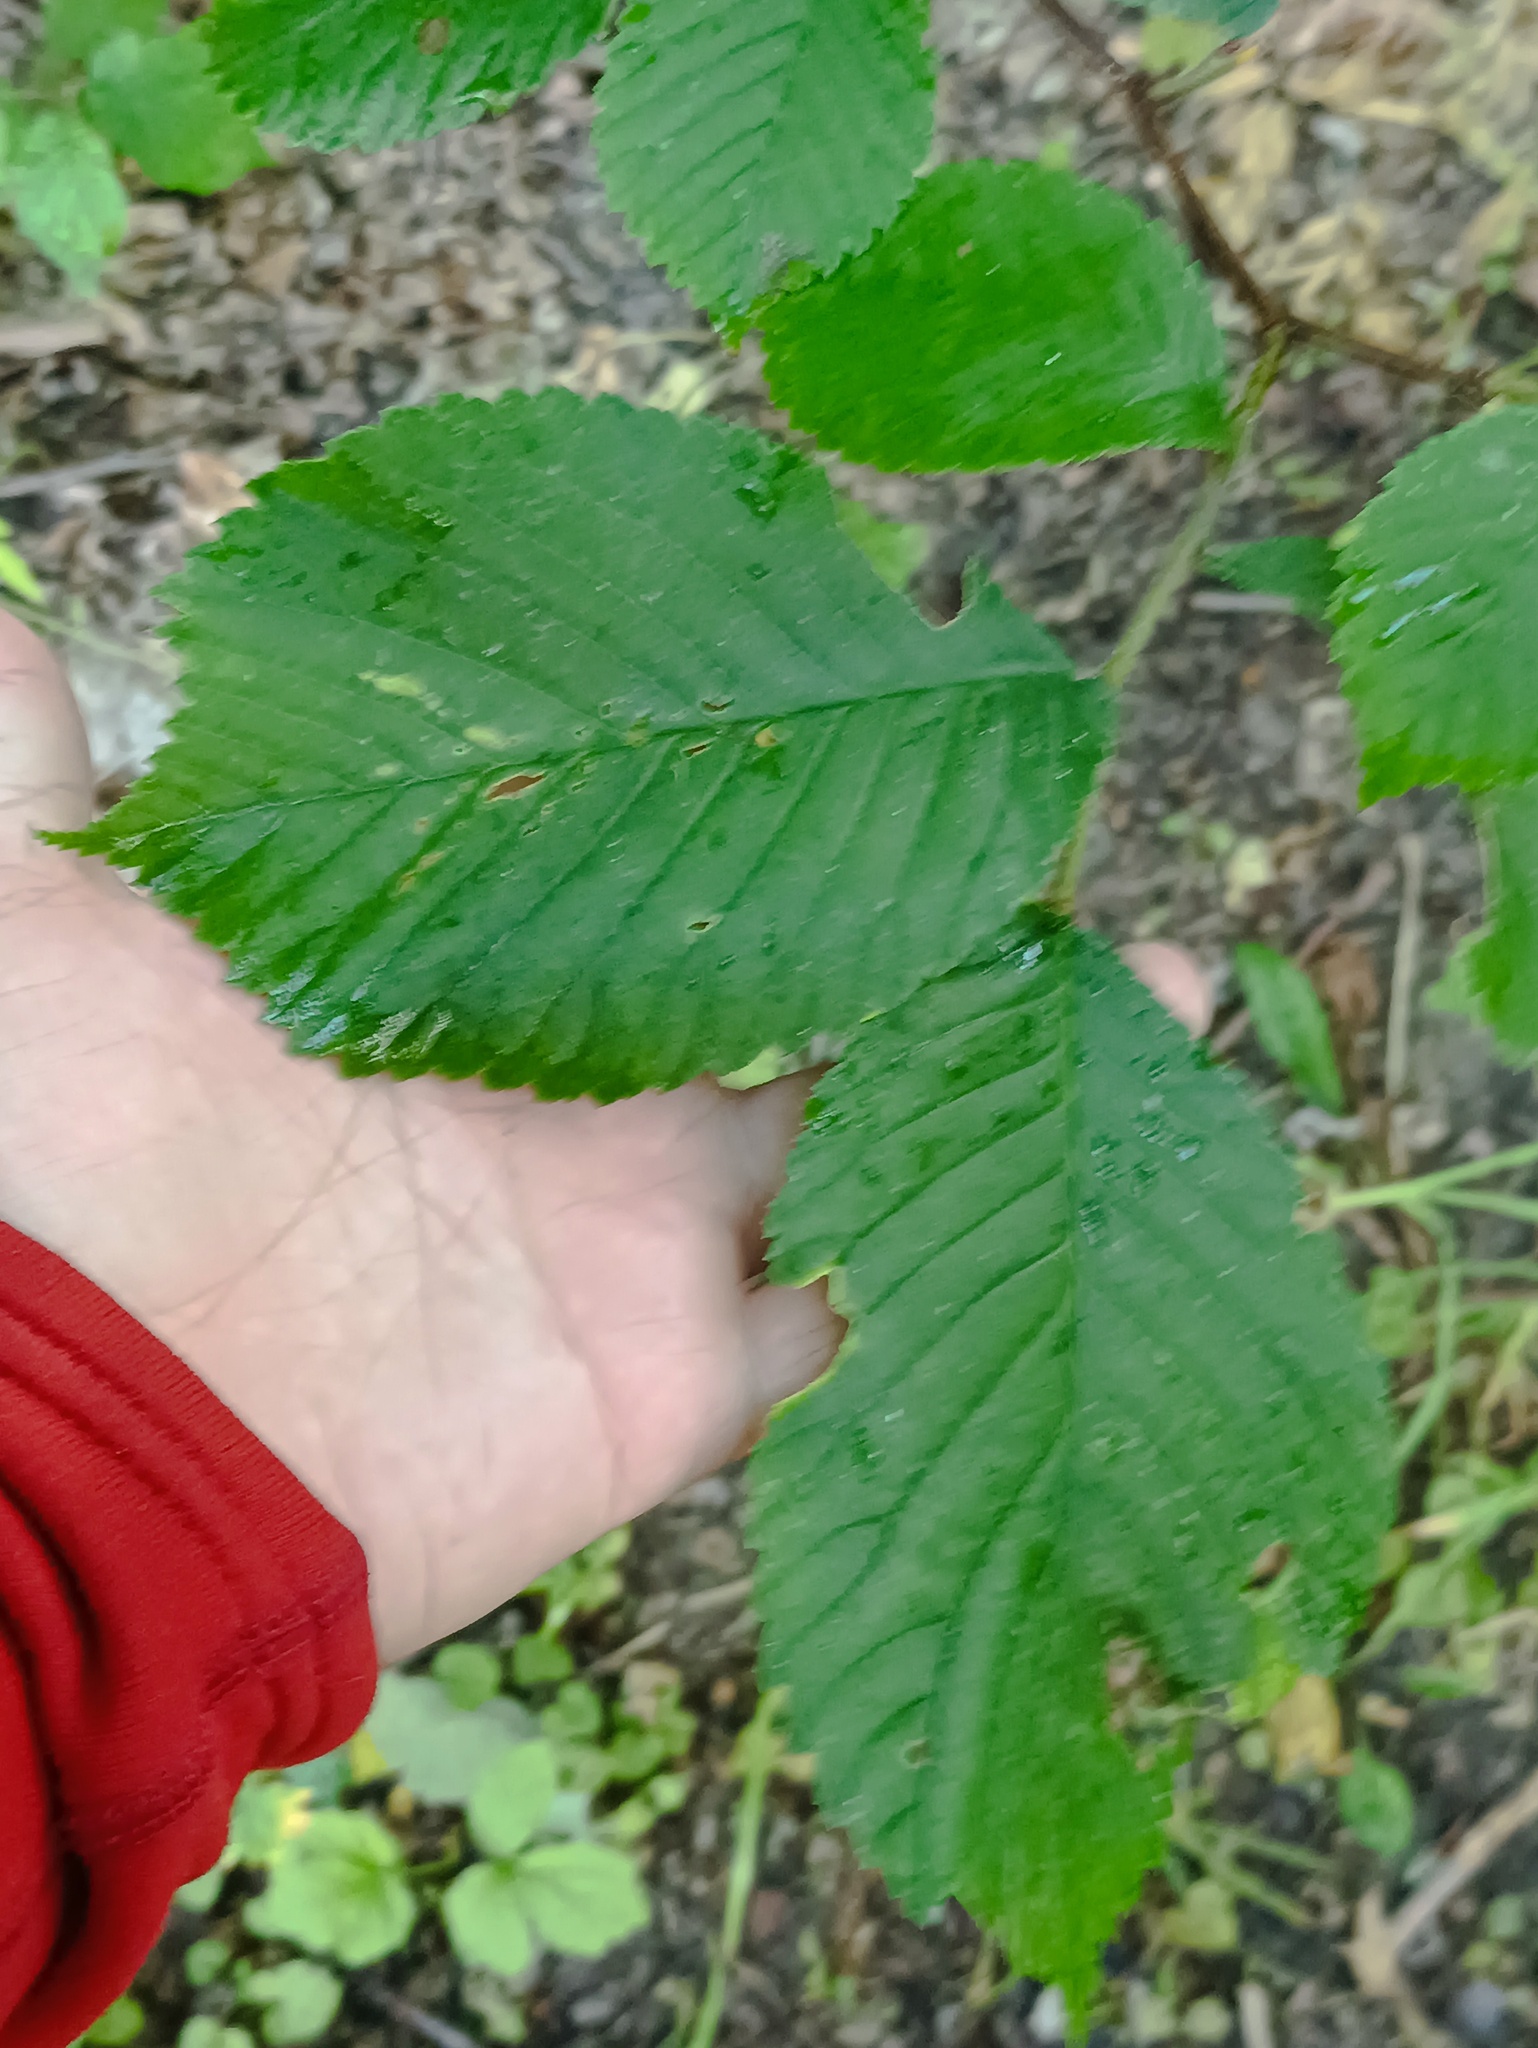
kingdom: Plantae
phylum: Tracheophyta
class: Magnoliopsida
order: Rosales
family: Ulmaceae
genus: Ulmus
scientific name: Ulmus glabra
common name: Wych elm
